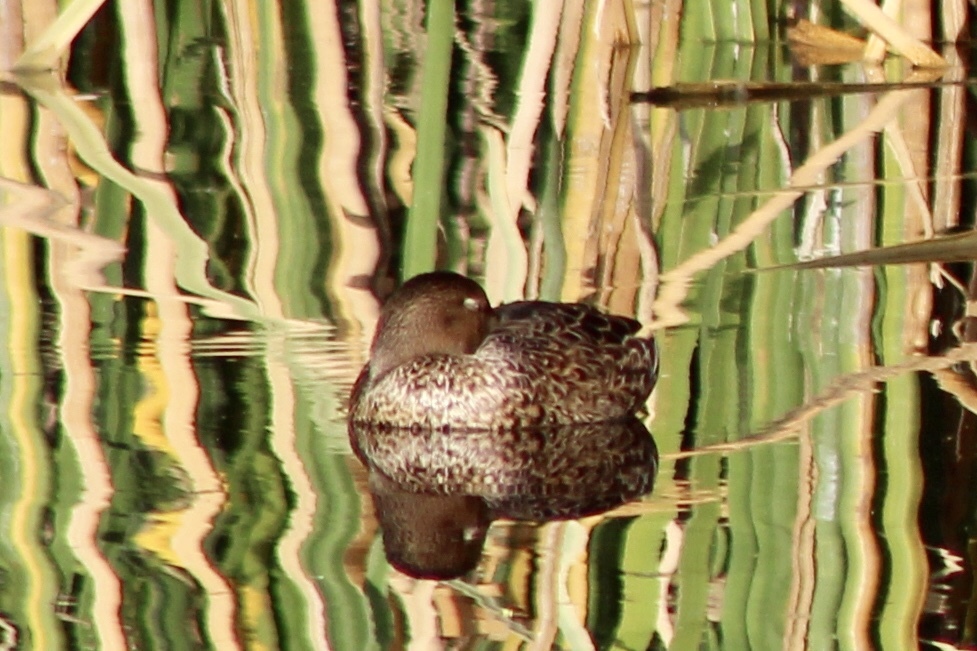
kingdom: Animalia
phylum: Chordata
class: Aves
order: Anseriformes
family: Anatidae
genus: Spatula
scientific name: Spatula cyanoptera
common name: Cinnamon teal
